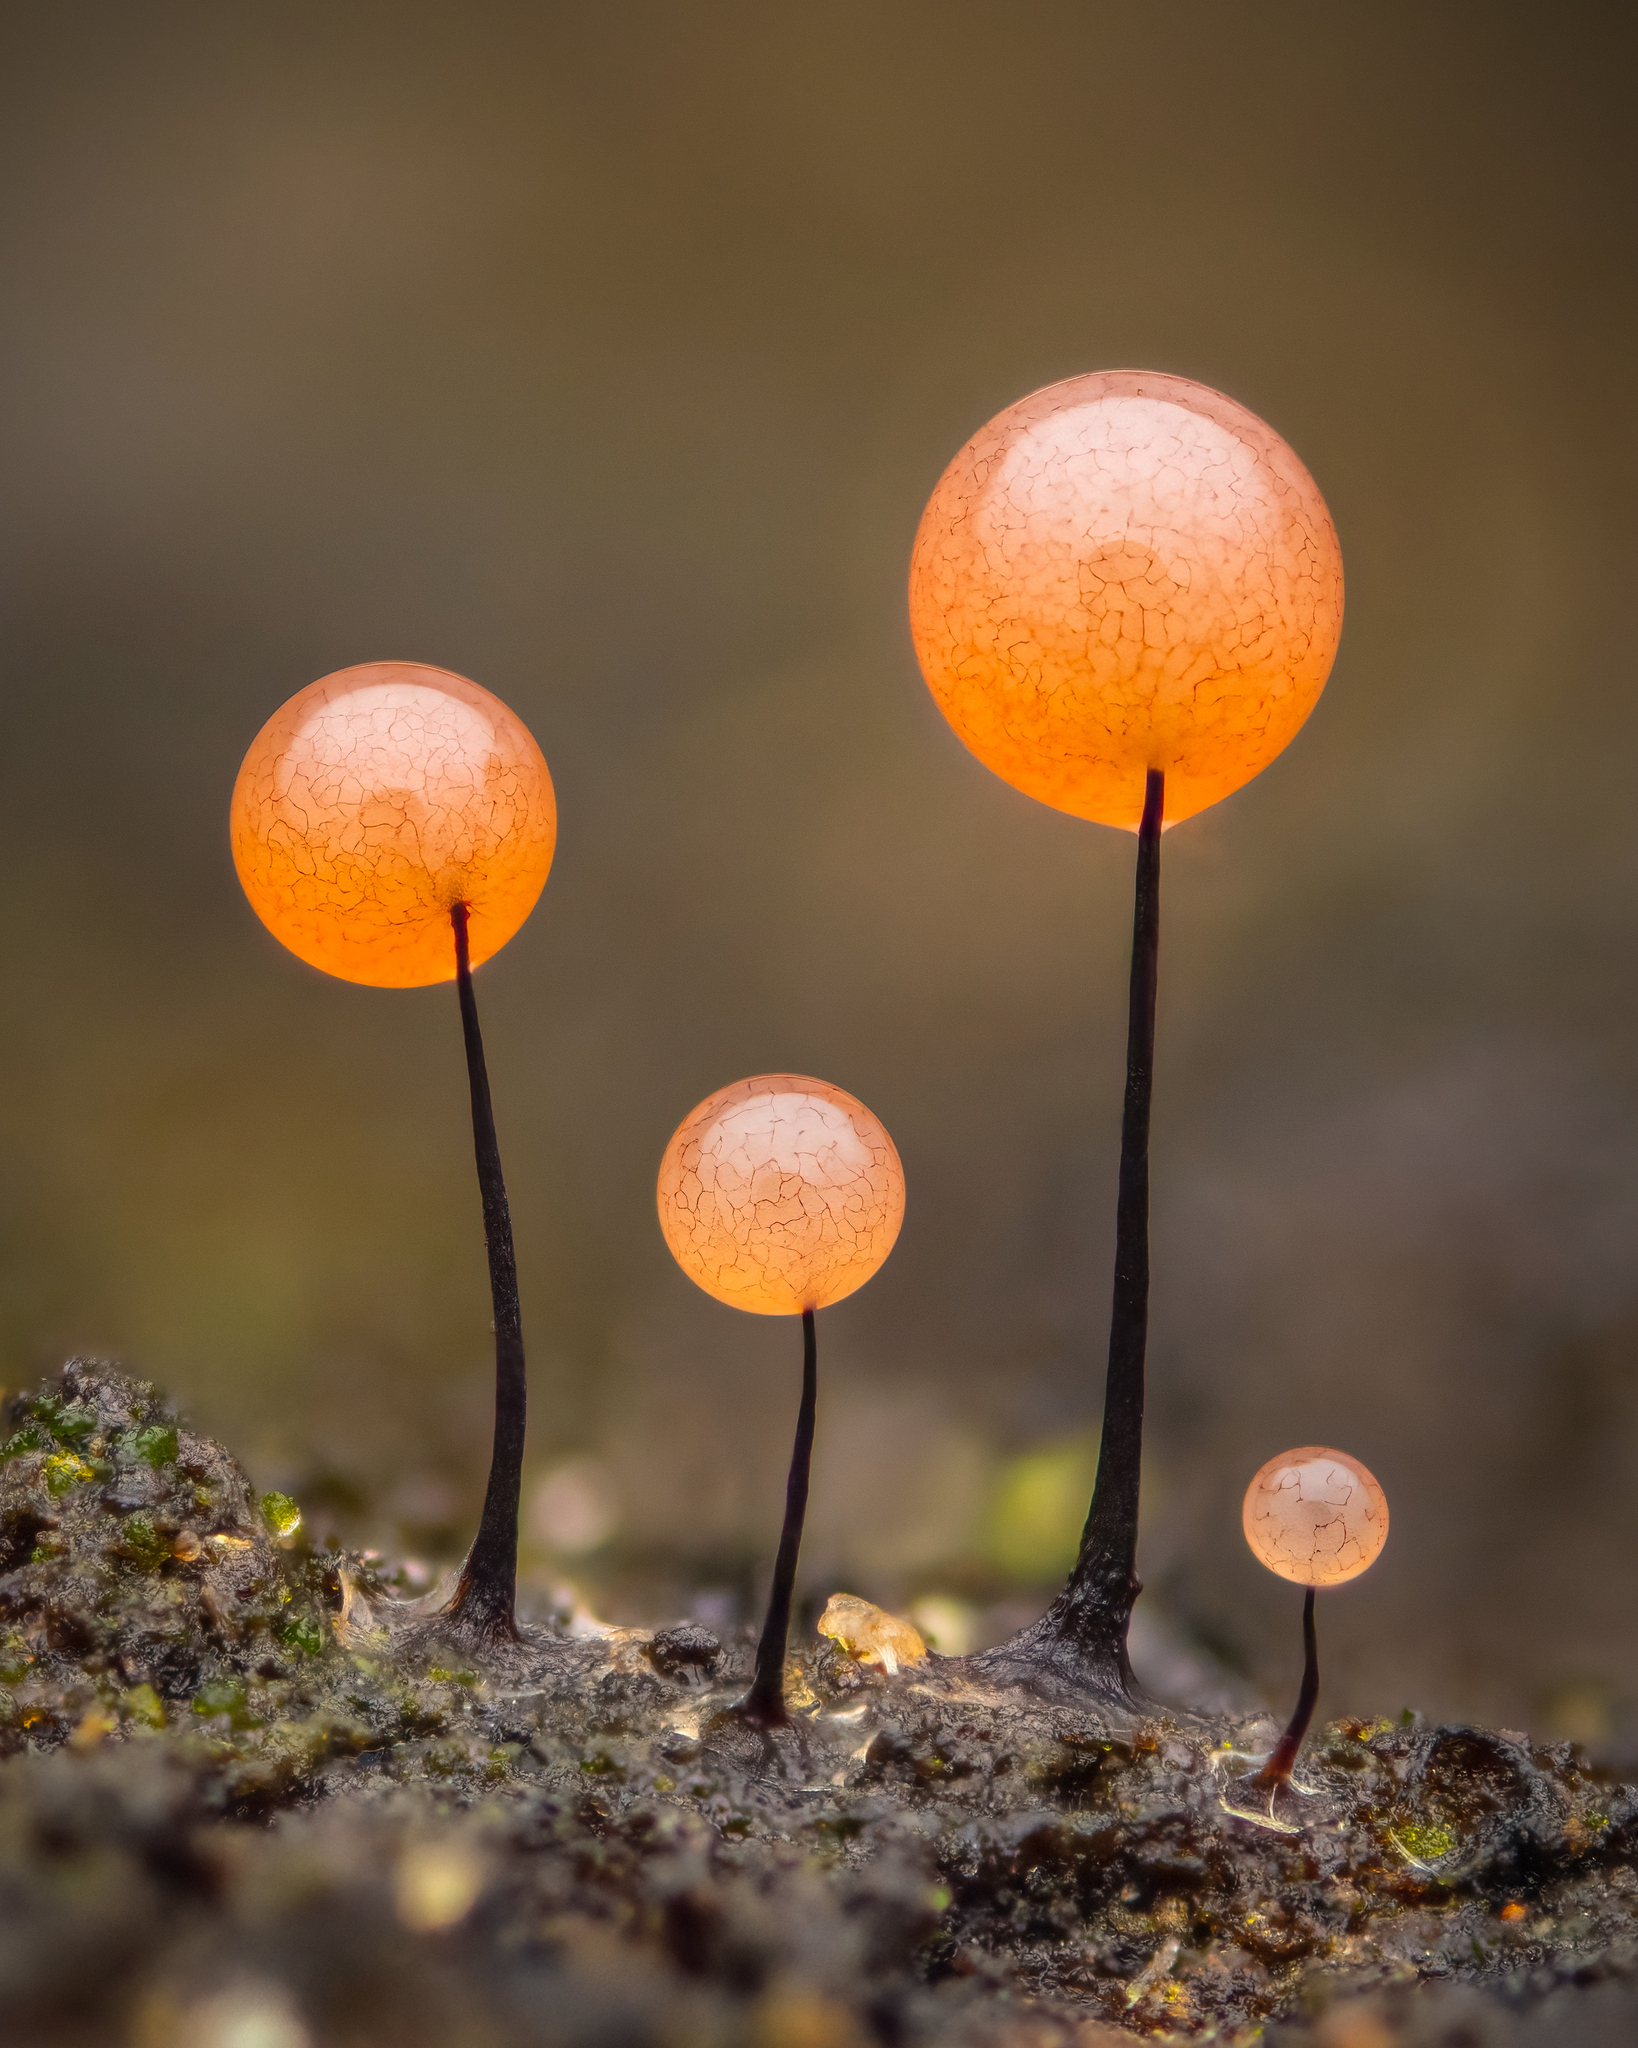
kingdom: Protozoa
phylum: Mycetozoa
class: Myxomycetes
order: Stemonitidales
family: Stemonitidaceae
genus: Comatricha
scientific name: Comatricha nigra
